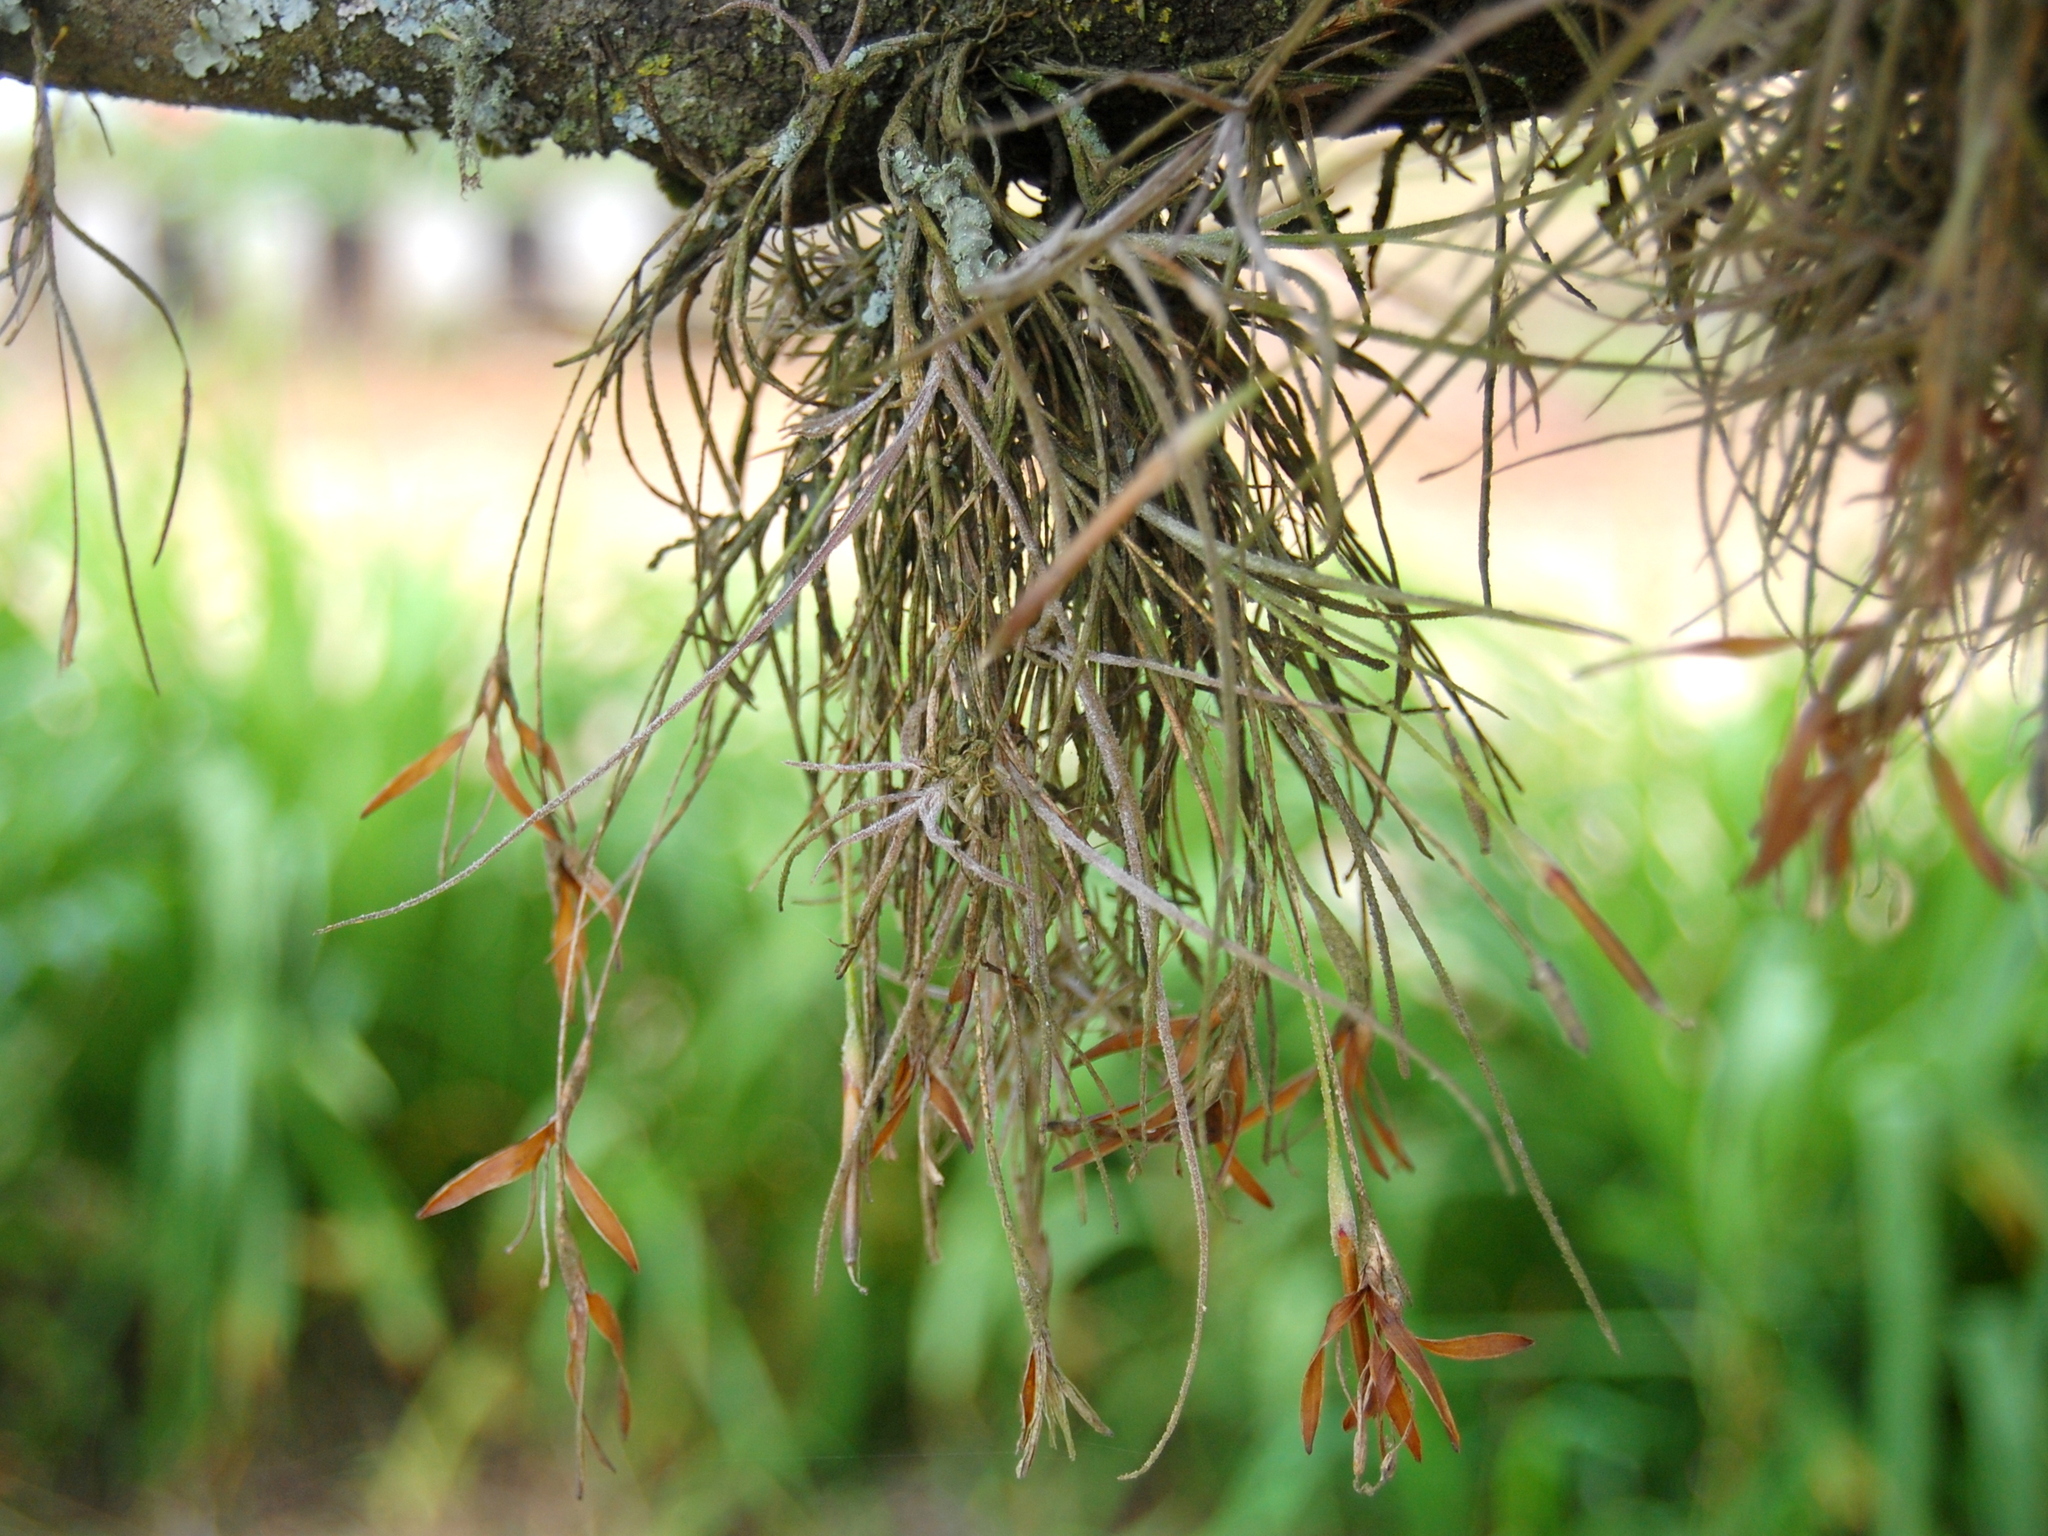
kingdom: Plantae
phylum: Tracheophyta
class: Liliopsida
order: Poales
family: Bromeliaceae
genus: Tillandsia
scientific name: Tillandsia recurvata
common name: Small ballmoss
